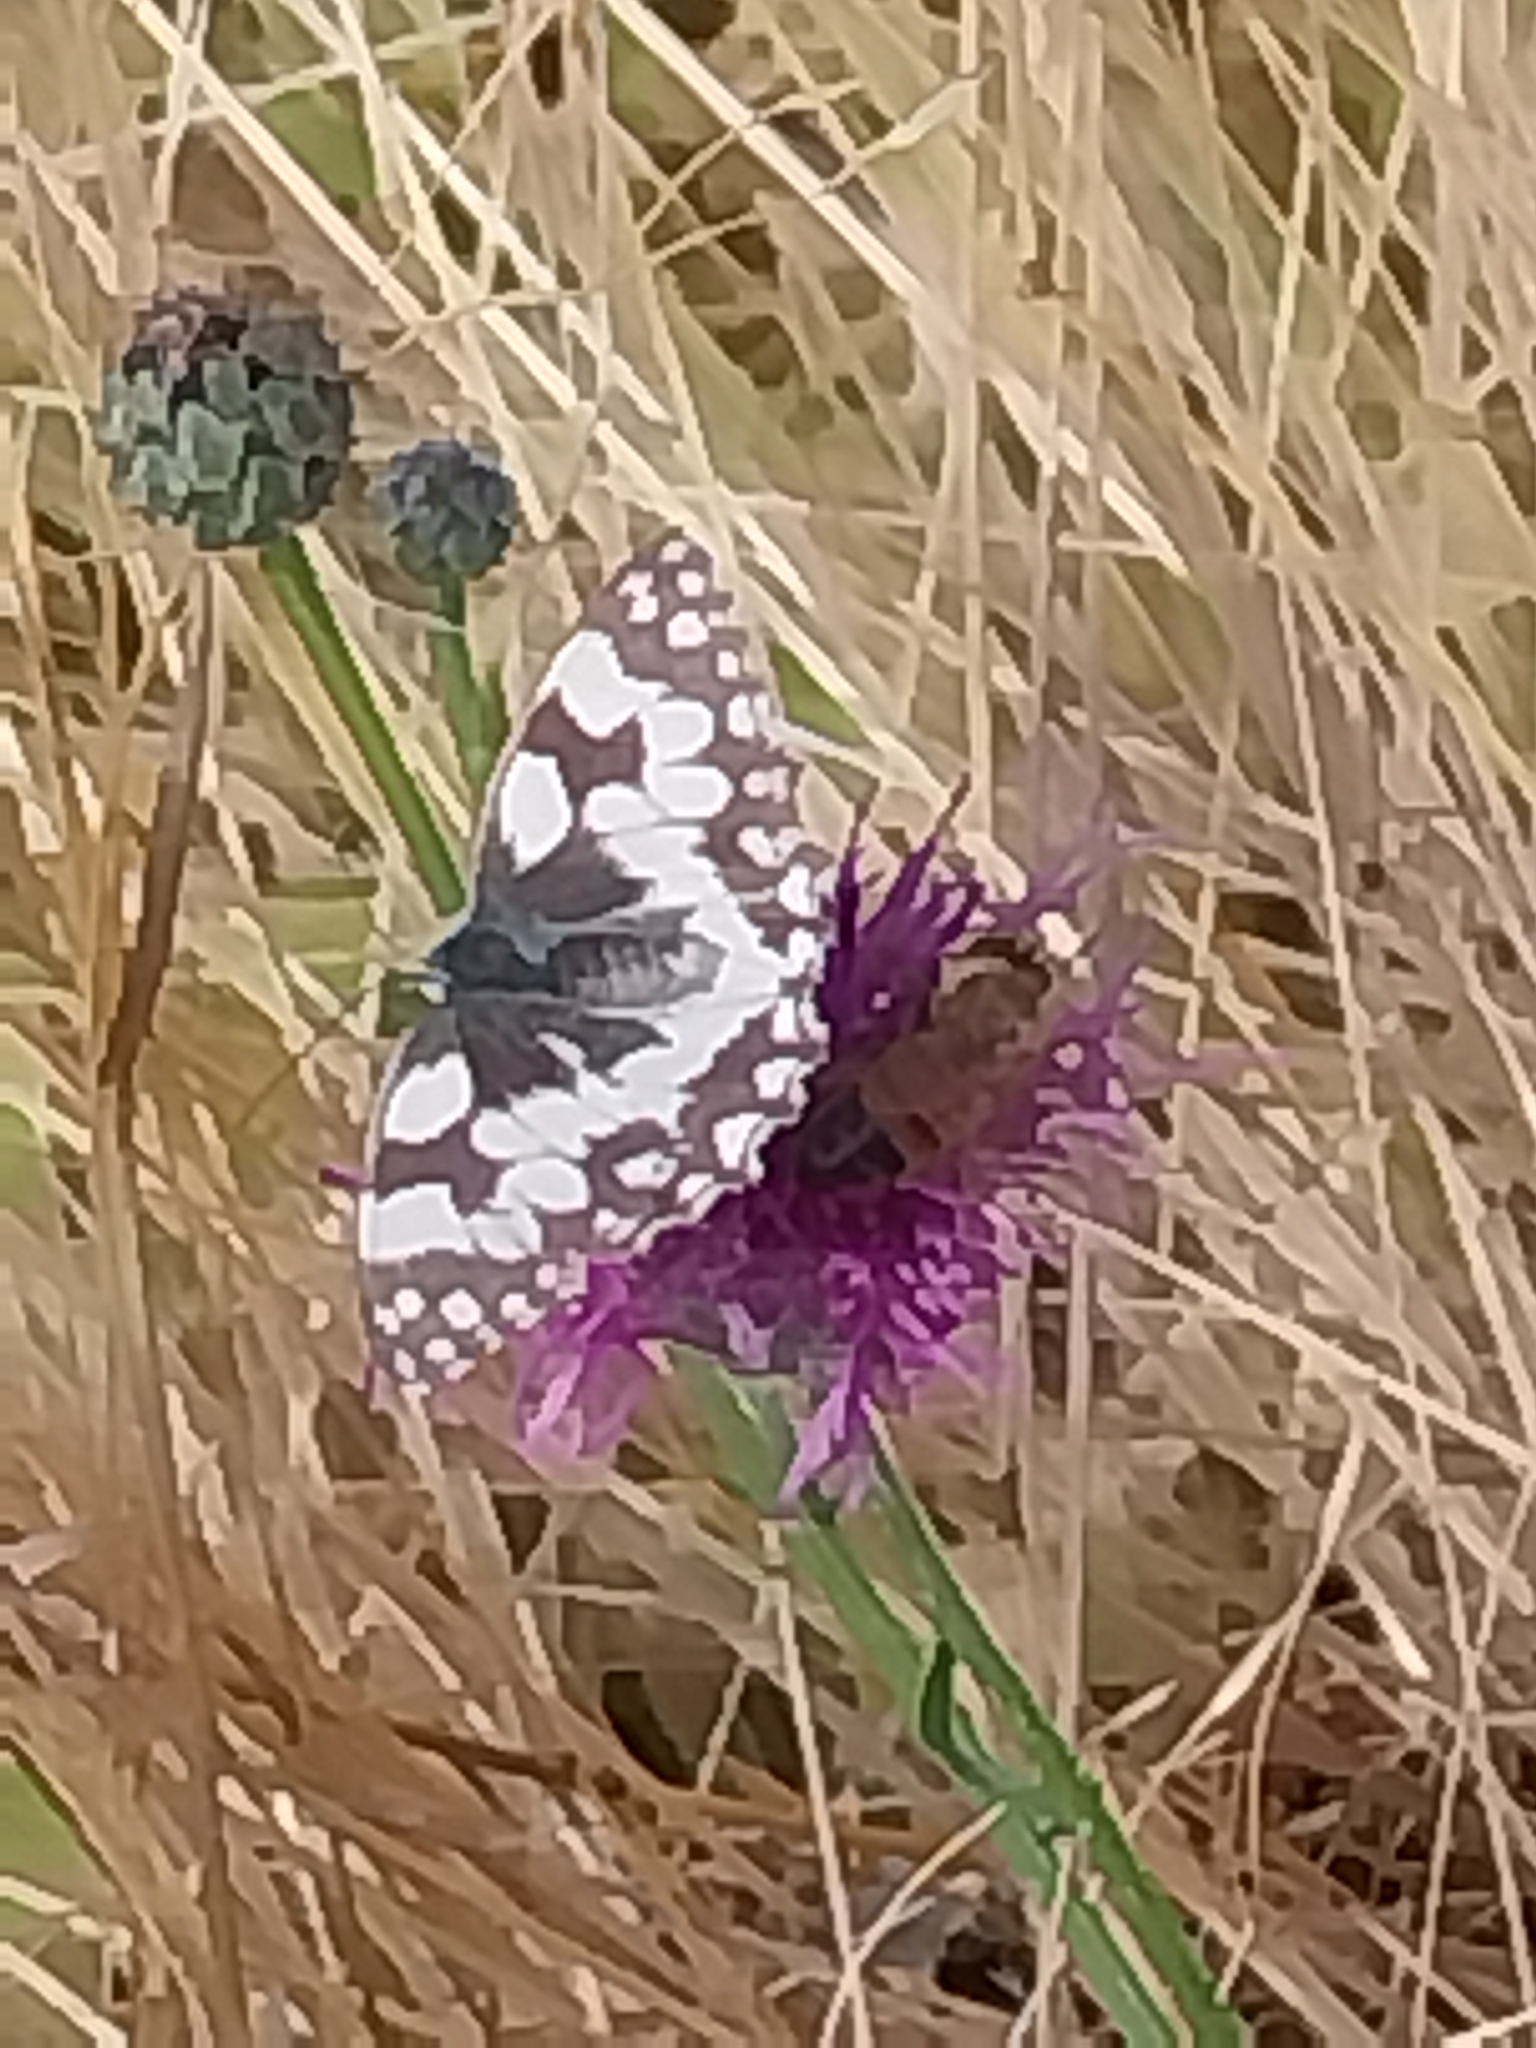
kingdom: Animalia
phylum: Arthropoda
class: Insecta
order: Lepidoptera
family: Nymphalidae
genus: Melanargia
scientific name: Melanargia galathea
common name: Marbled white
